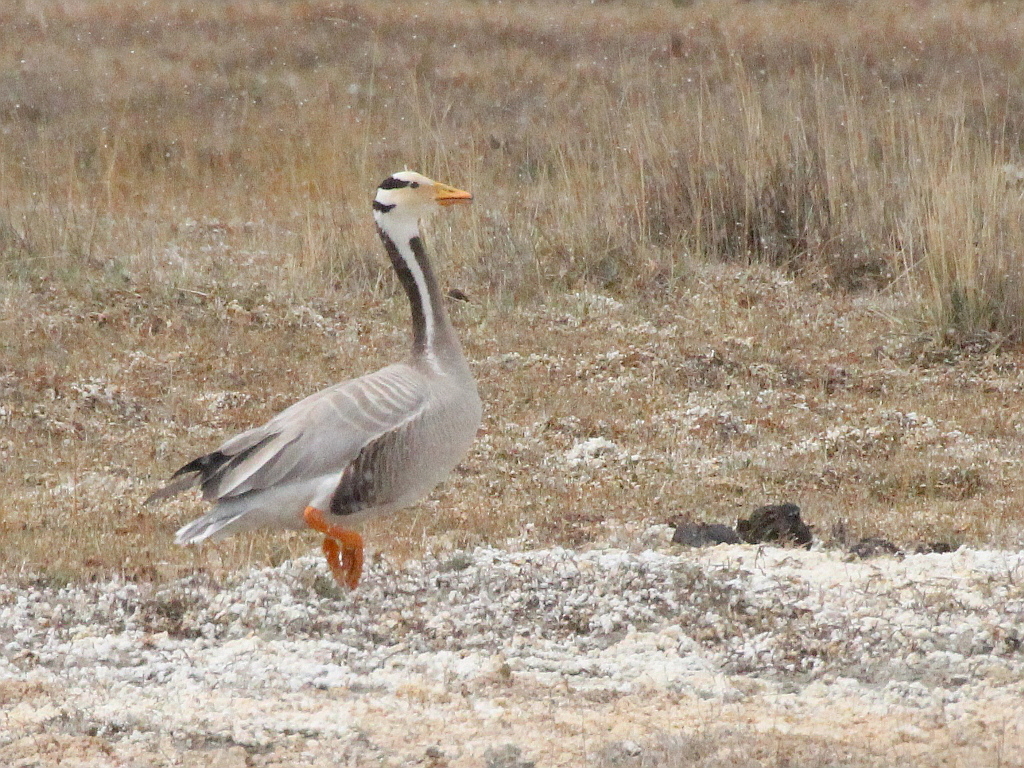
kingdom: Animalia
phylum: Chordata
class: Aves
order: Anseriformes
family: Anatidae
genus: Anser
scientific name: Anser indicus
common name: Bar-headed goose
